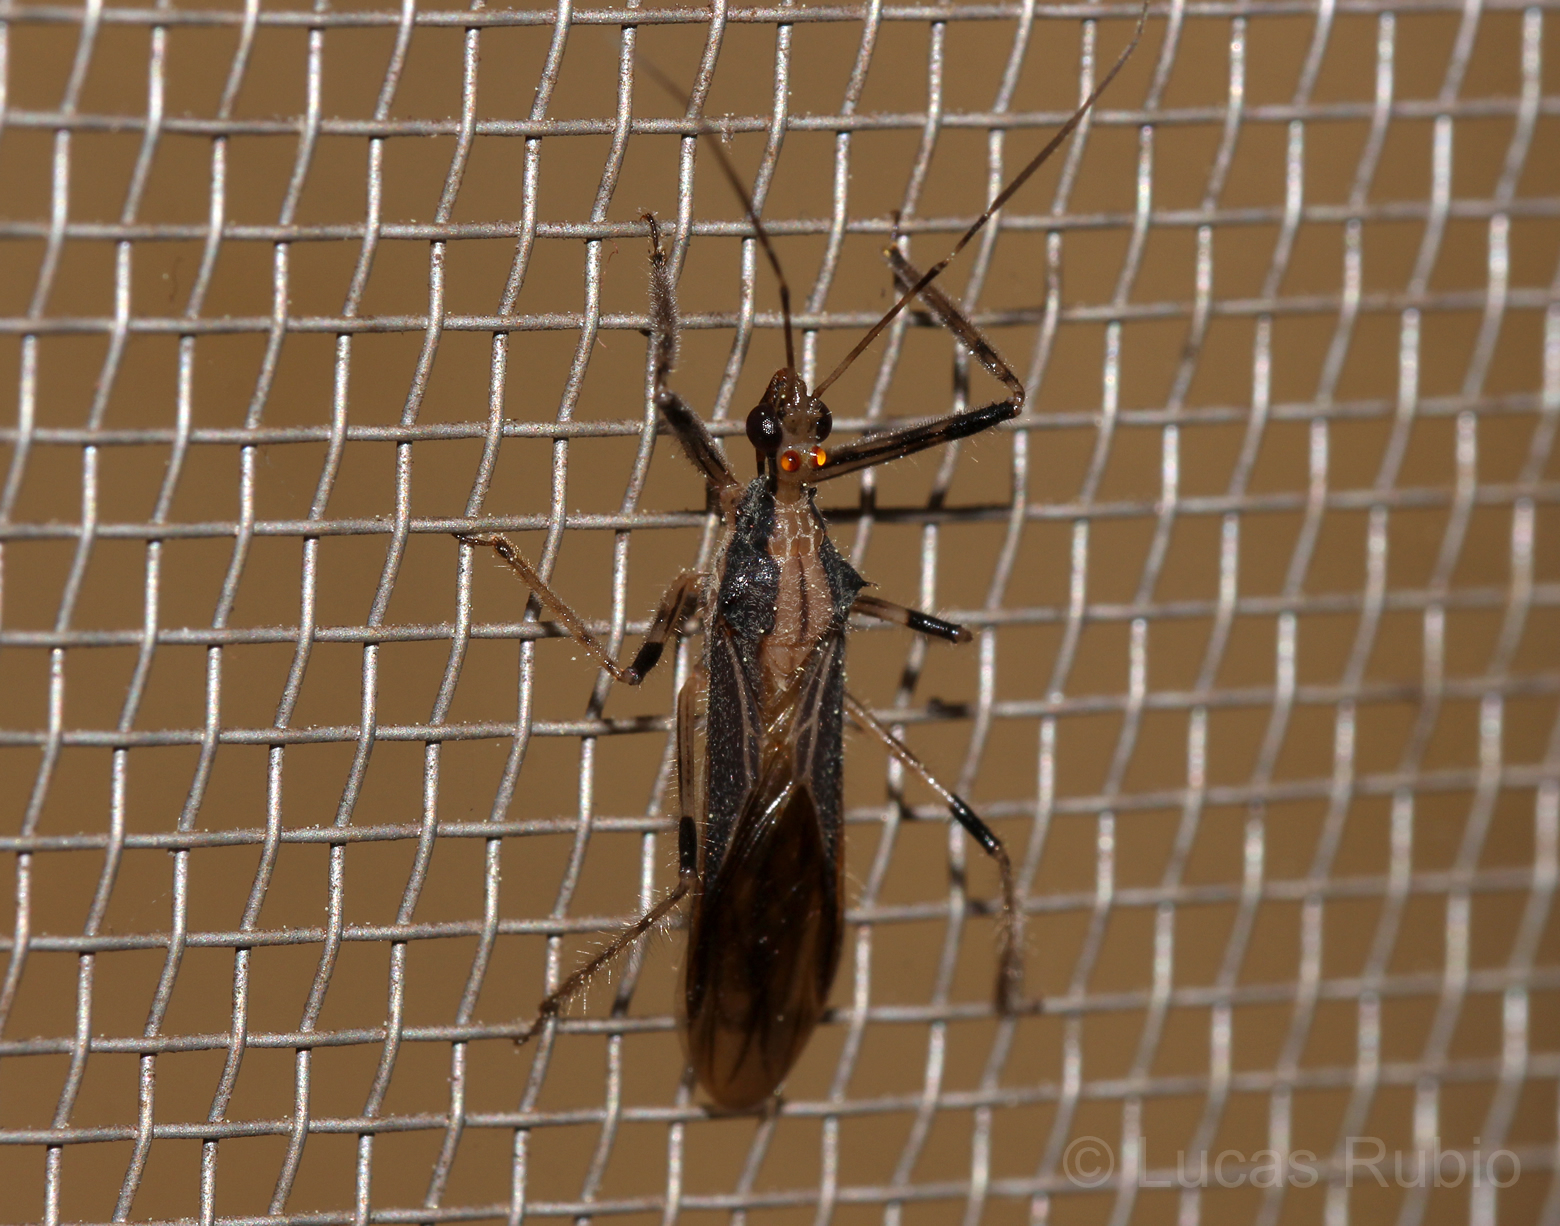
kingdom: Animalia
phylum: Arthropoda
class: Insecta
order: Hemiptera
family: Reduviidae
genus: Repipta
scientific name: Repipta argentinensis
